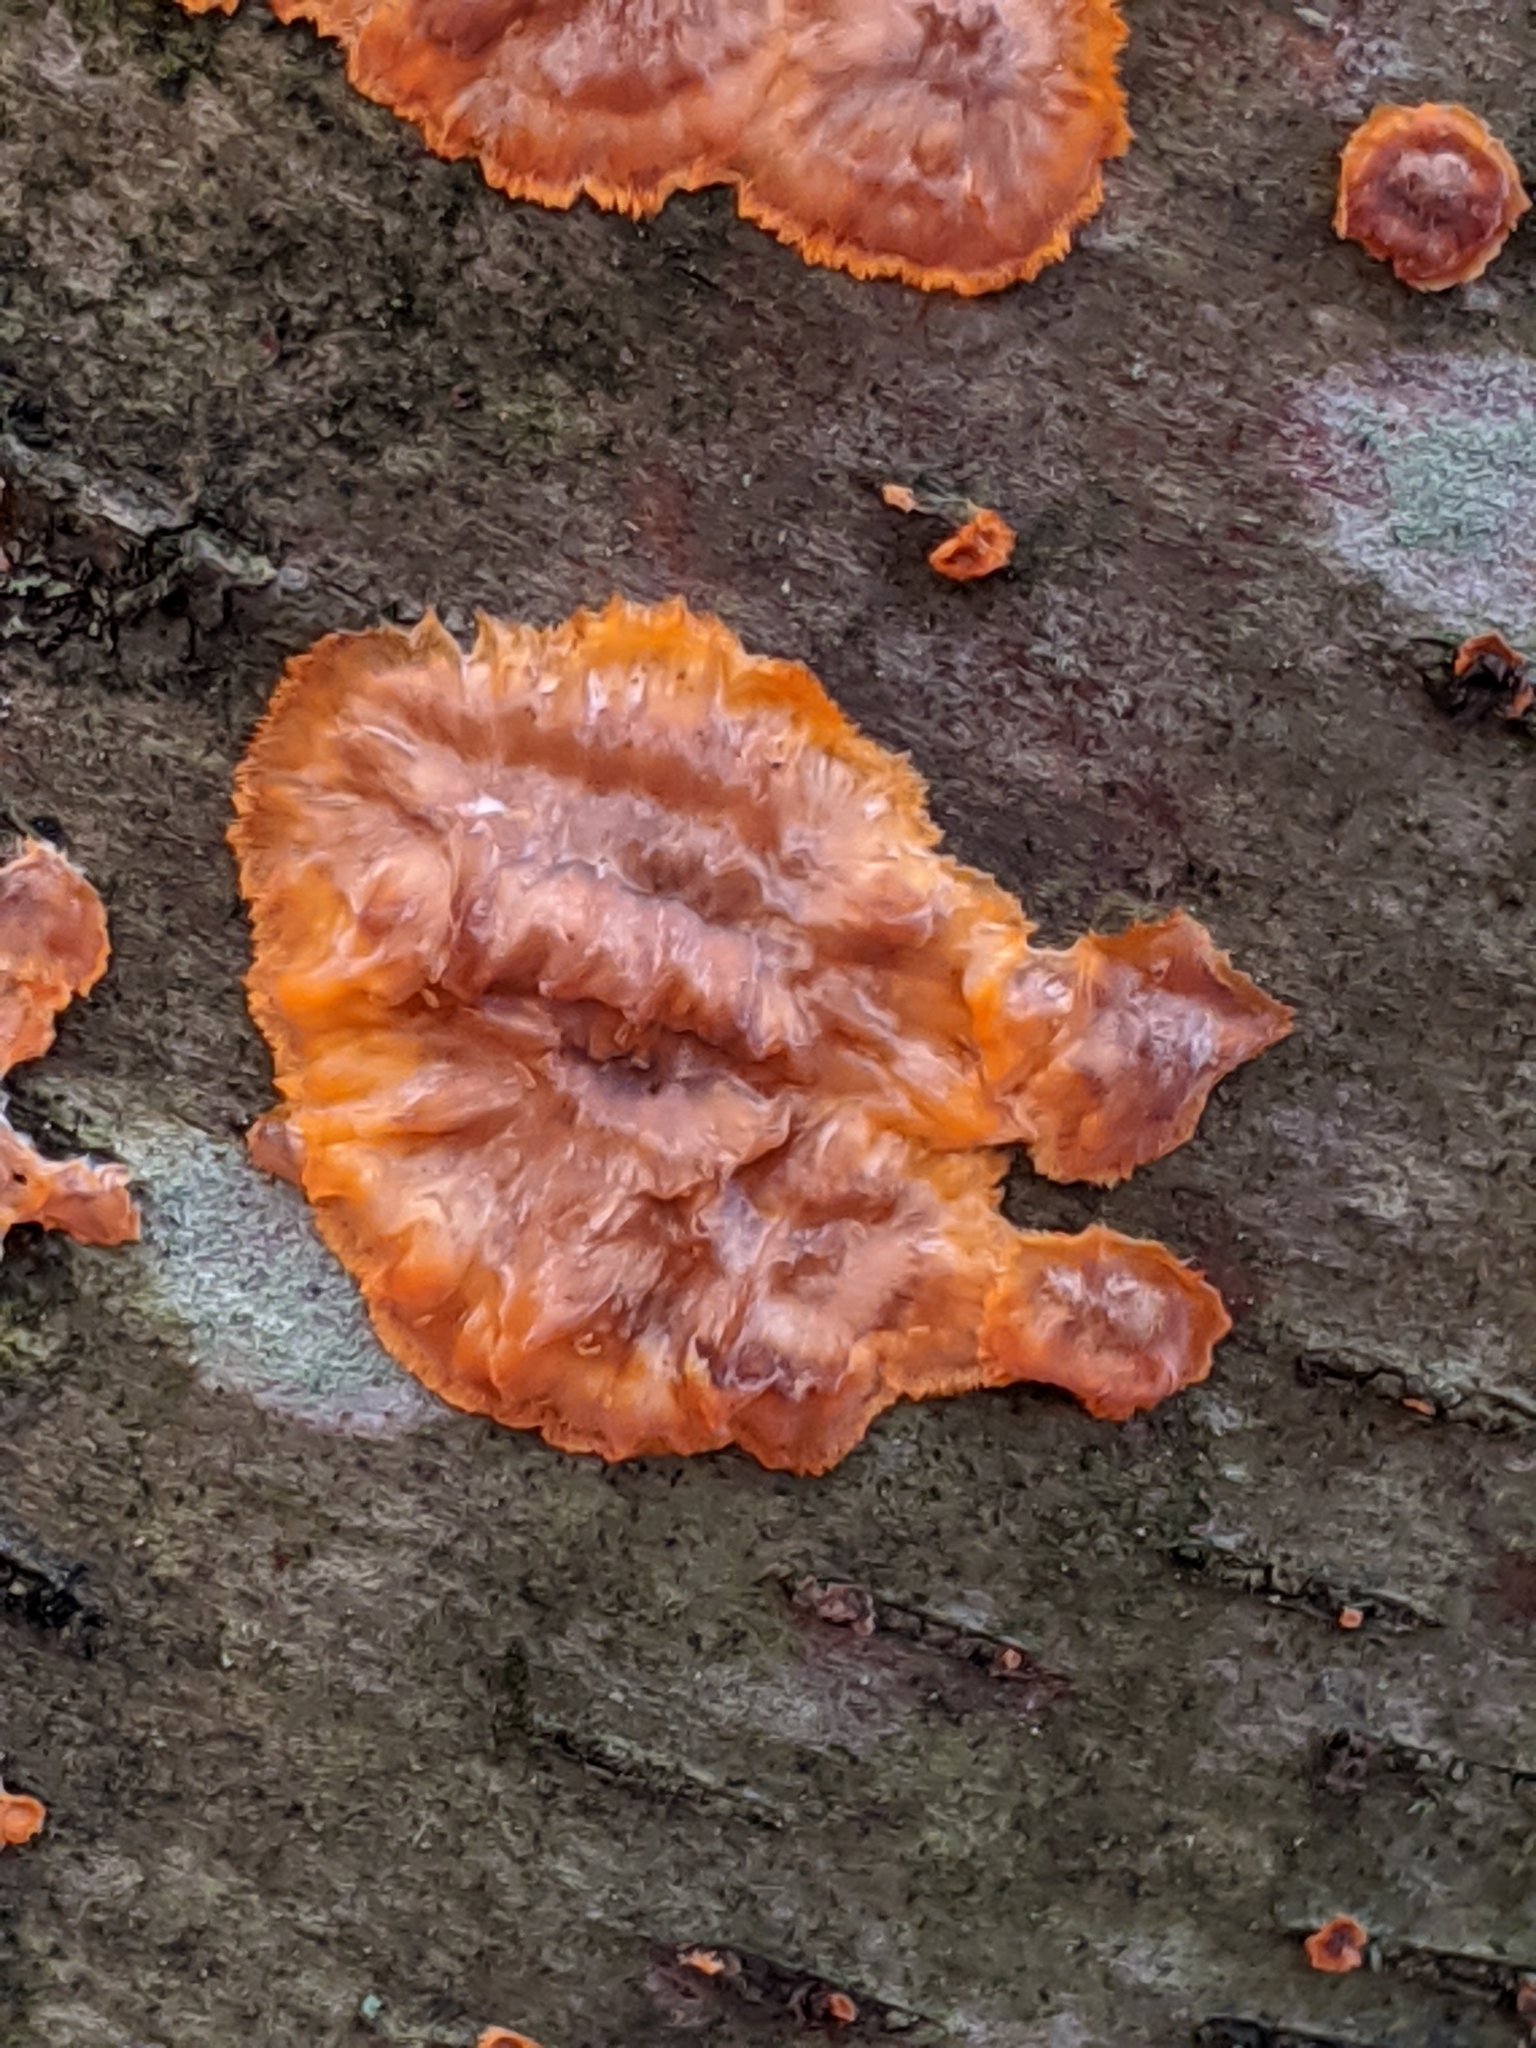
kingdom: Fungi
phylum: Basidiomycota
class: Agaricomycetes
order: Polyporales
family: Meruliaceae
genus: Phlebia
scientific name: Phlebia radiata
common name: Wrinkled crust
